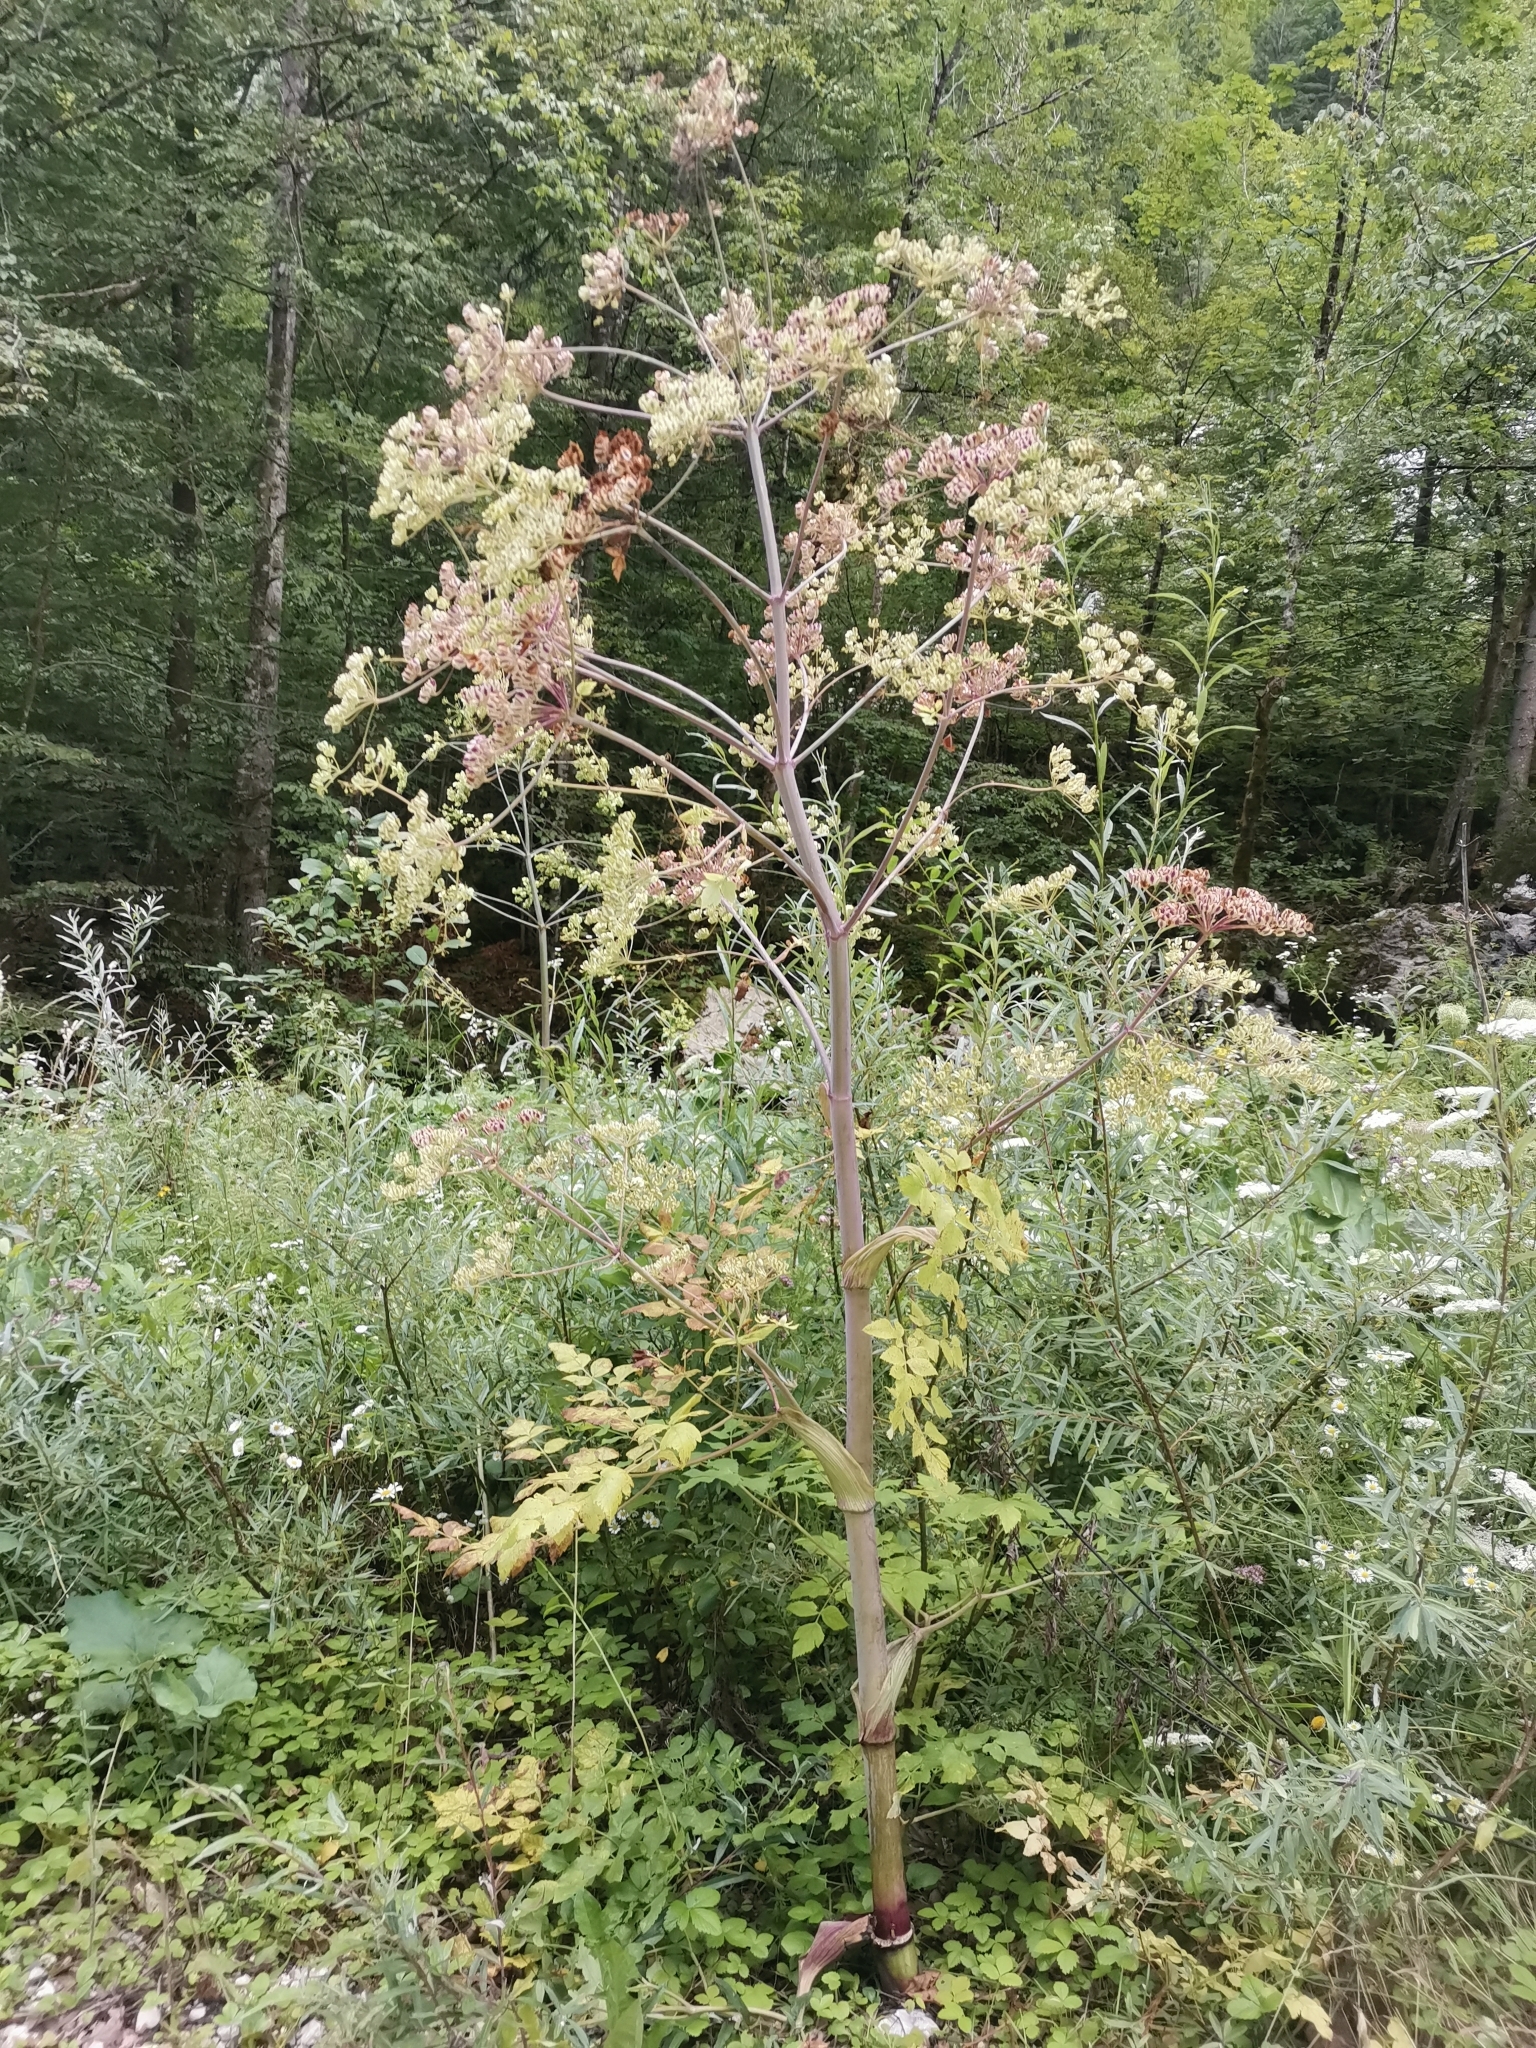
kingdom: Plantae
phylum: Tracheophyta
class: Magnoliopsida
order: Apiales
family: Apiaceae
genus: Peucedanum
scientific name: Peucedanum verticillare
